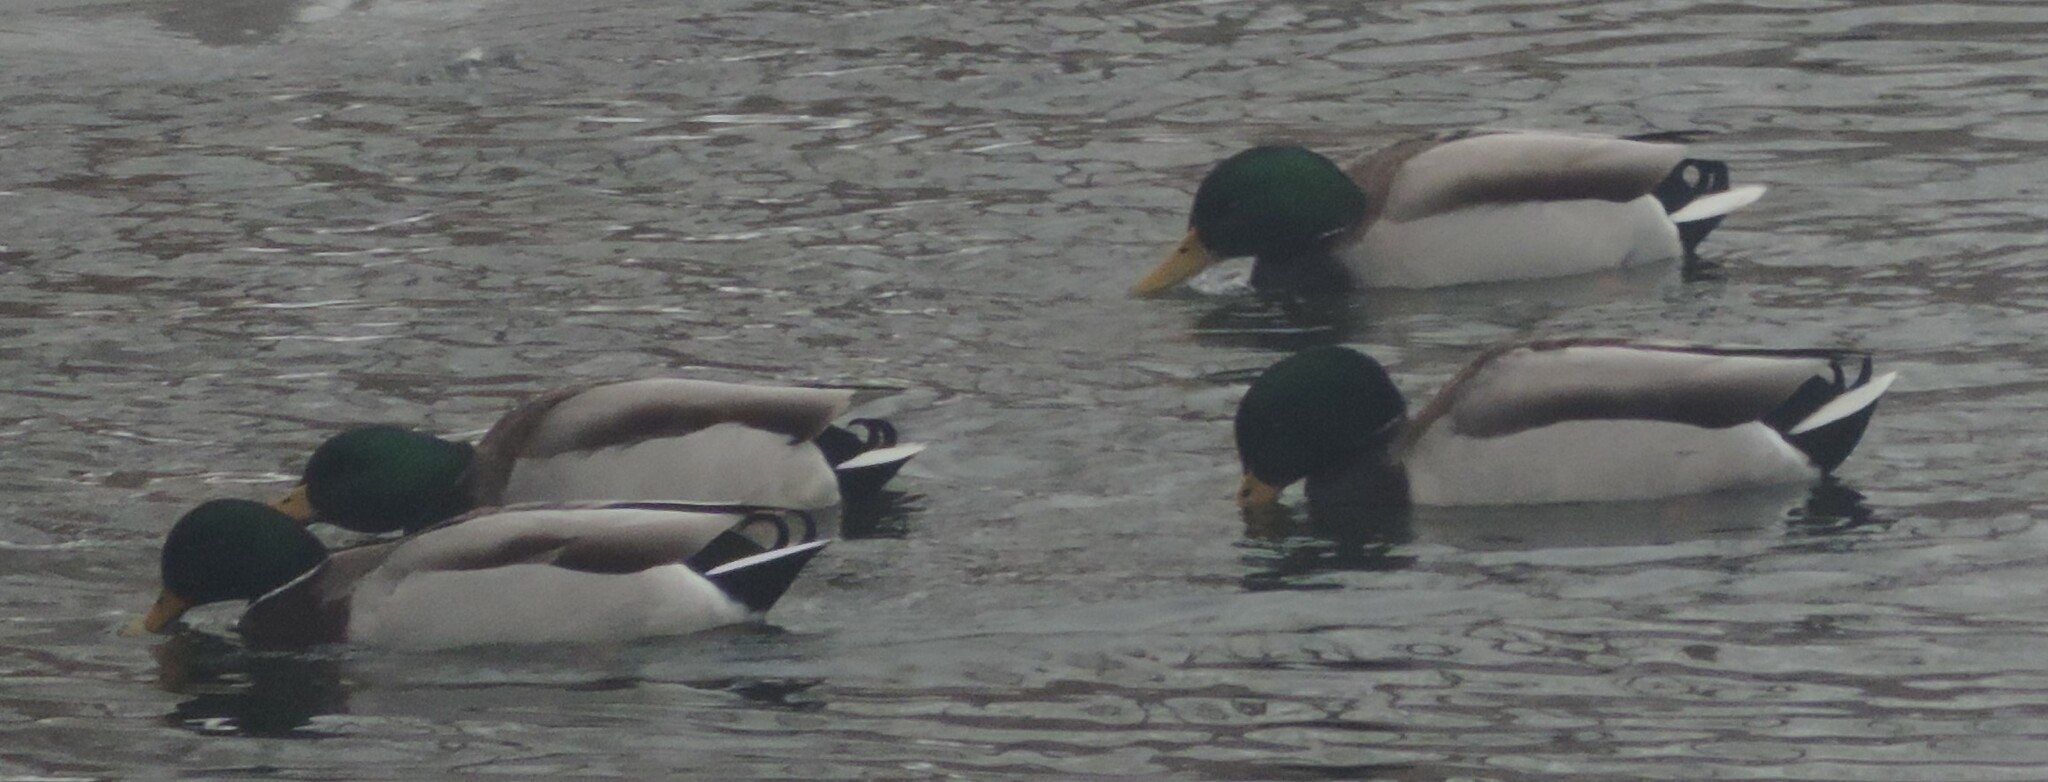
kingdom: Animalia
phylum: Chordata
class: Aves
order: Anseriformes
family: Anatidae
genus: Anas
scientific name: Anas platyrhynchos
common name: Mallard
